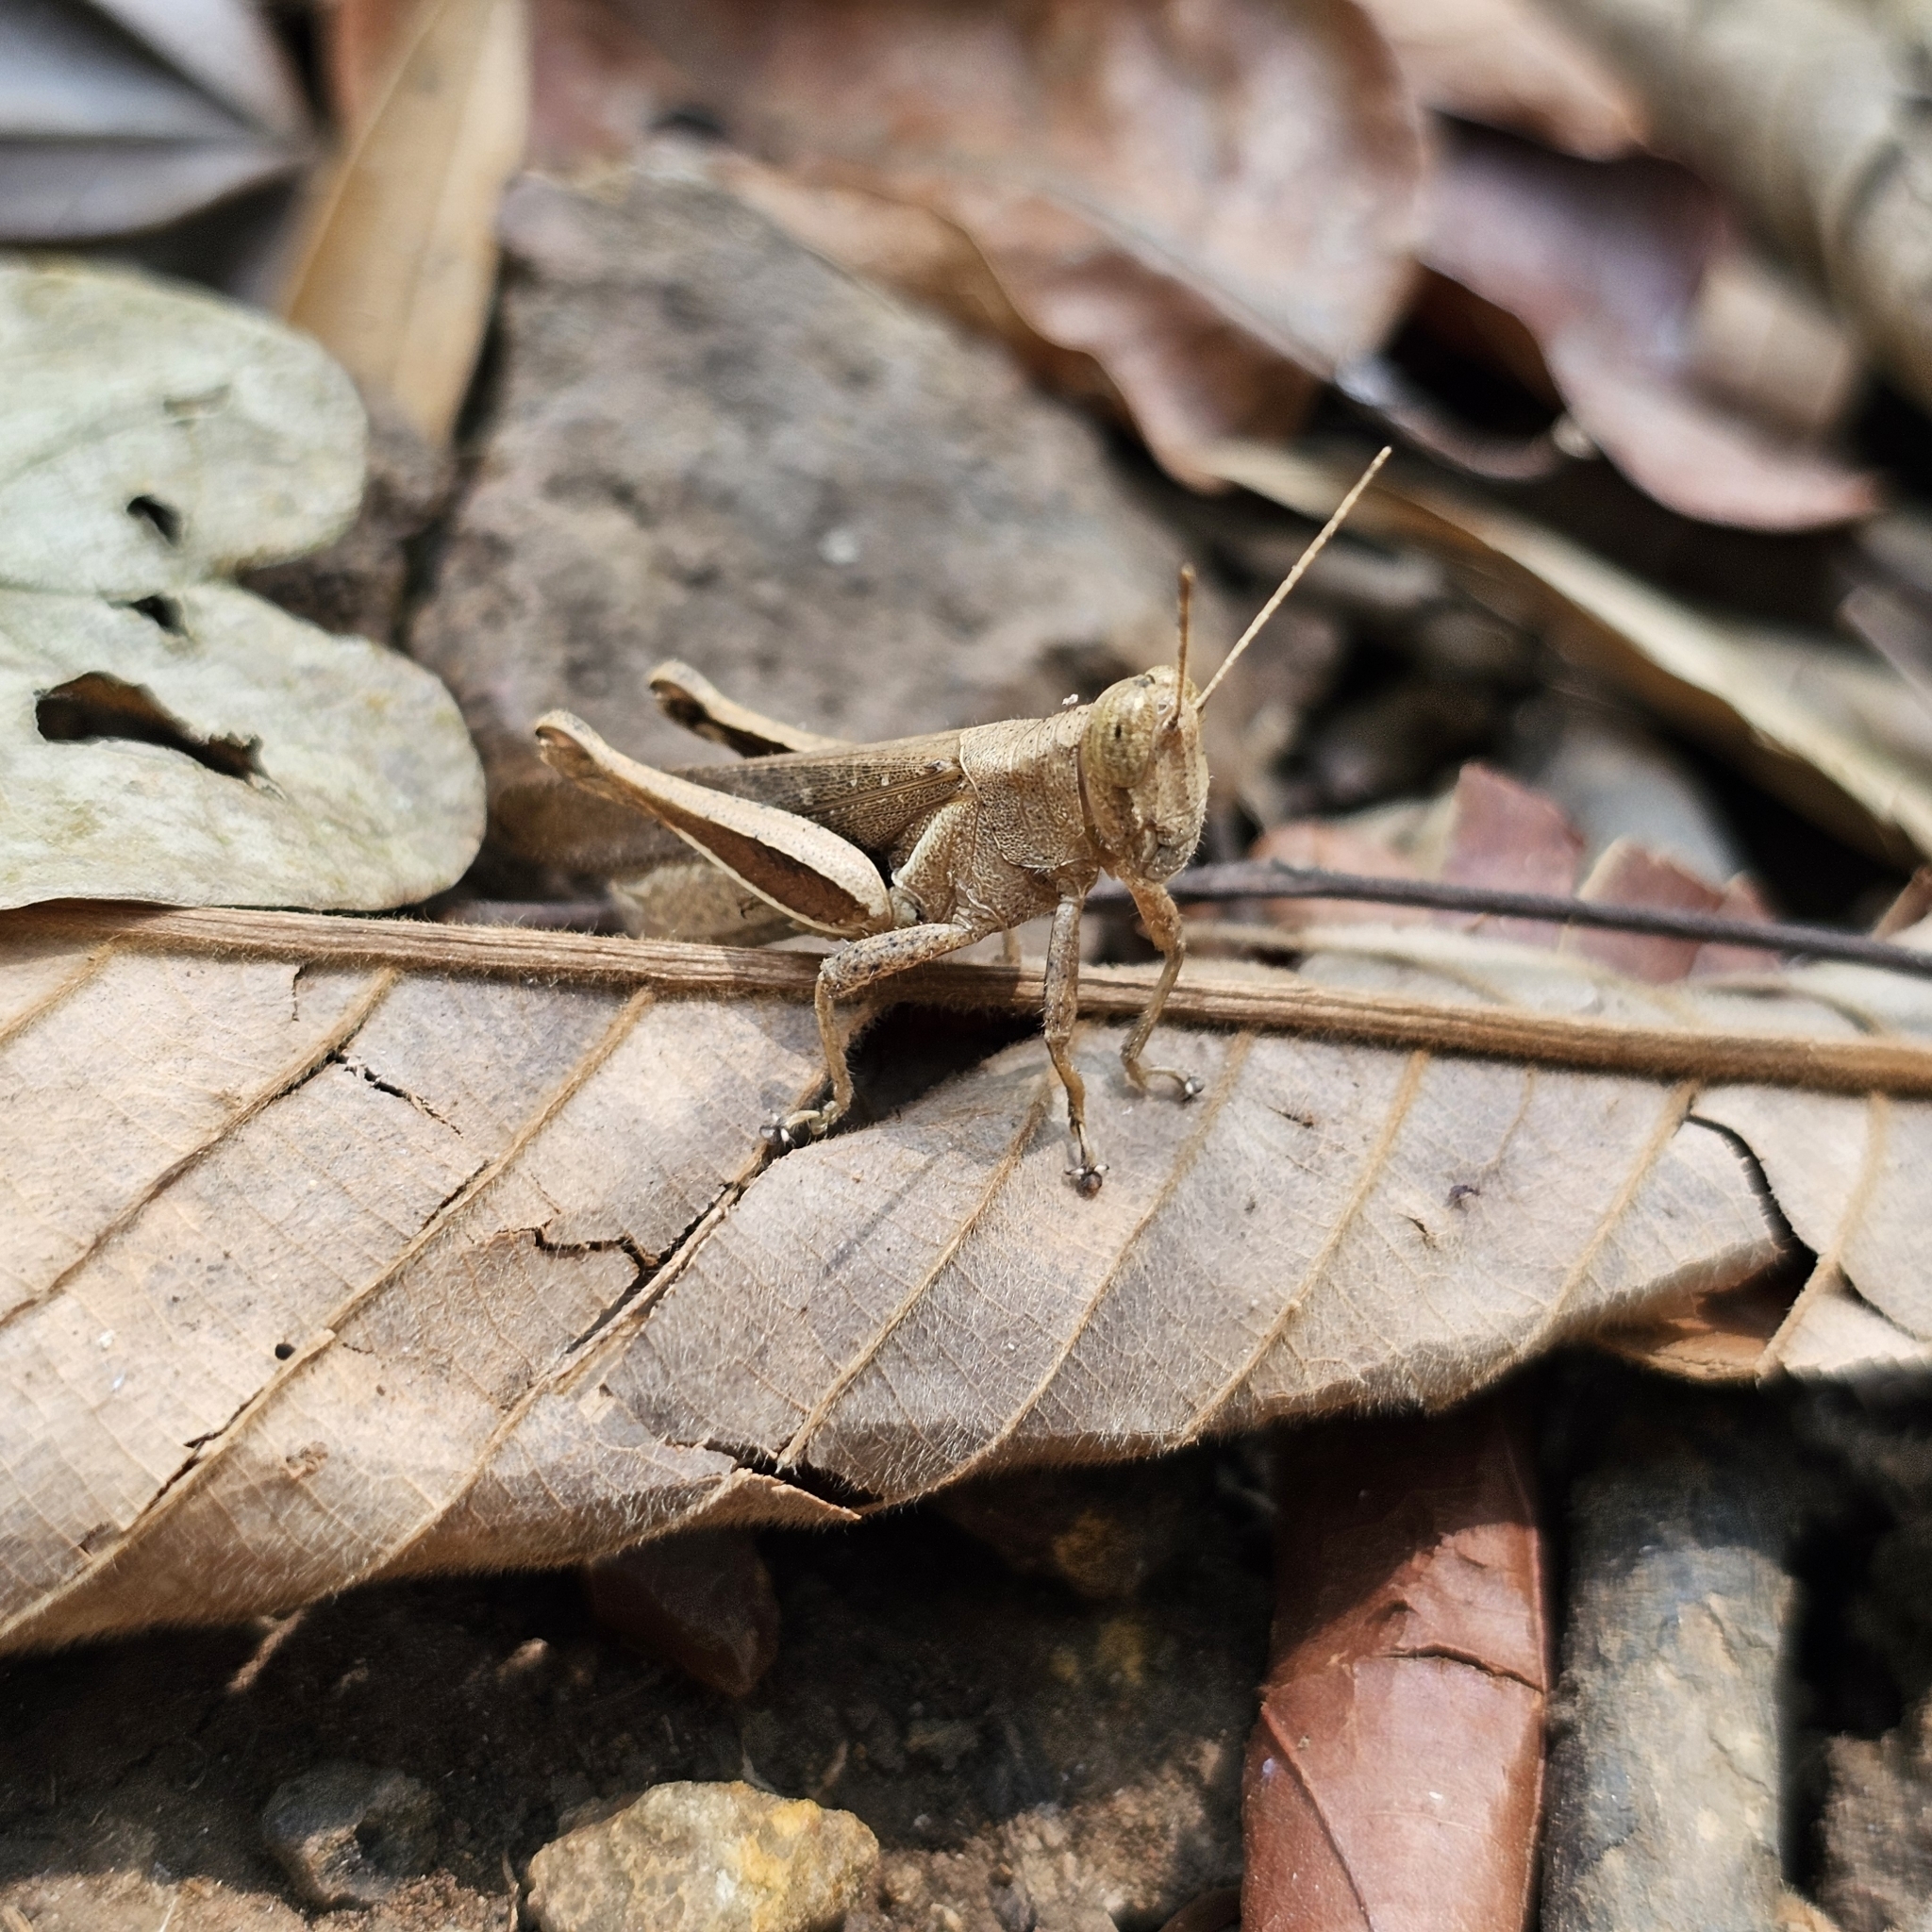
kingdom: Animalia
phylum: Arthropoda
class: Insecta
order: Orthoptera
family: Acrididae
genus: Abracris
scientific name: Abracris flavolineata
